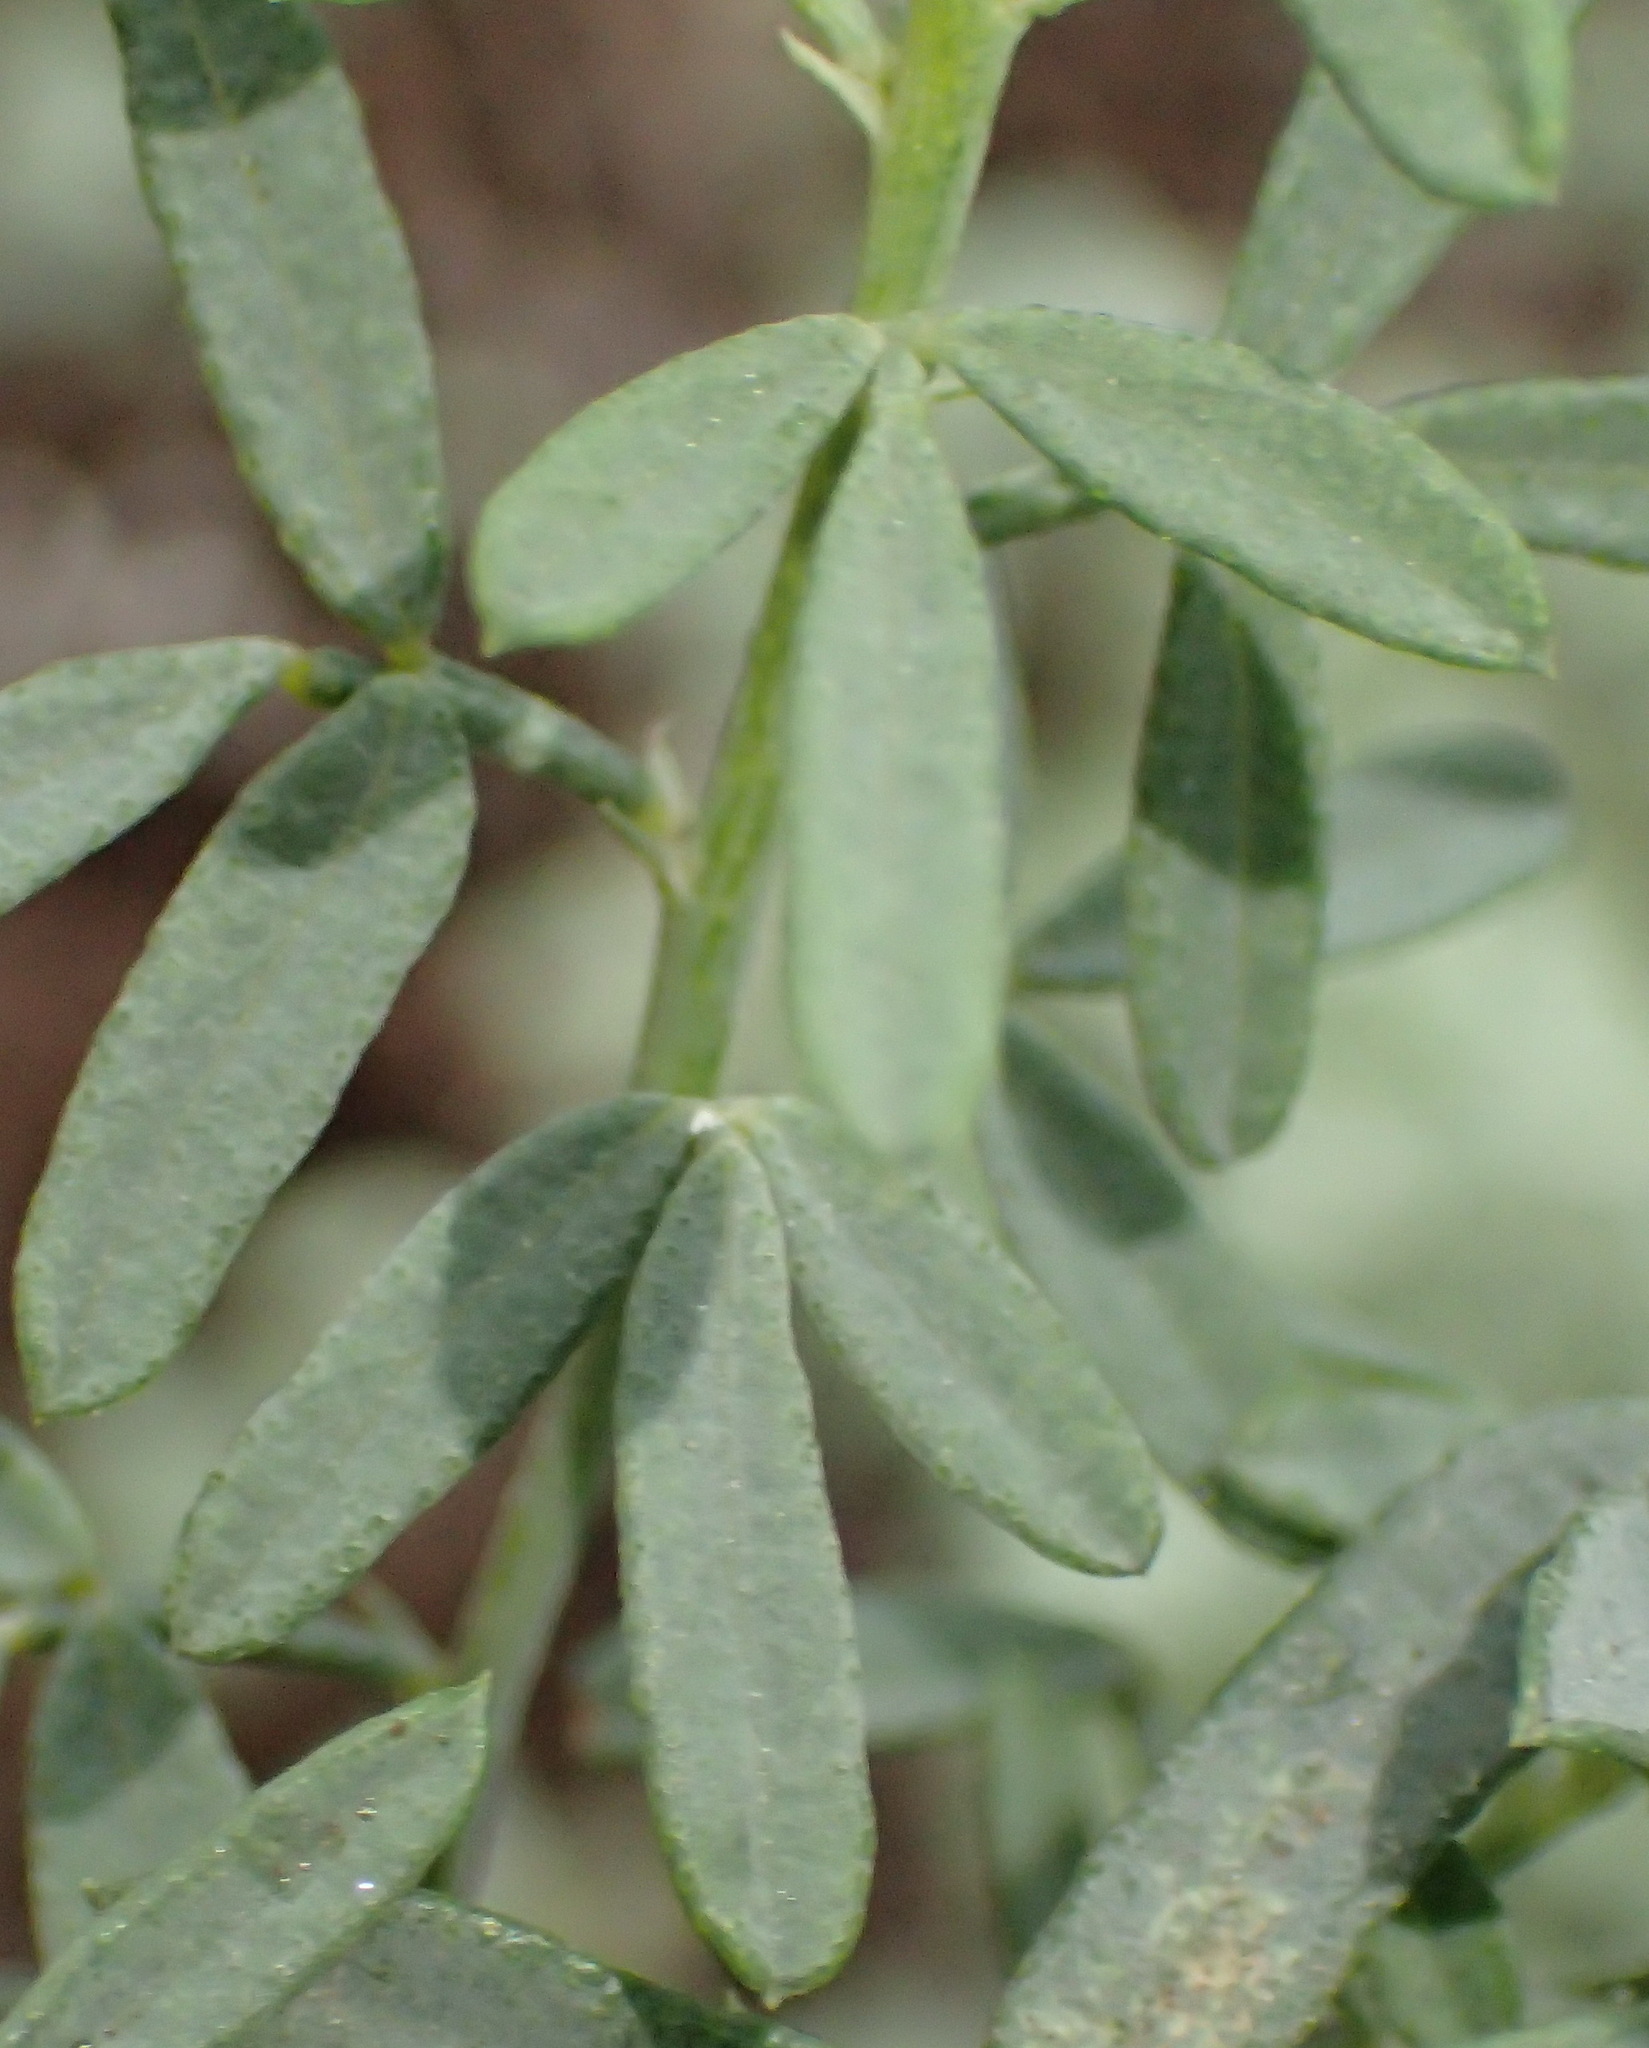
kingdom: Plantae
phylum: Tracheophyta
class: Magnoliopsida
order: Fabales
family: Fabaceae
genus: Psoralea
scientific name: Psoralea axillaris
